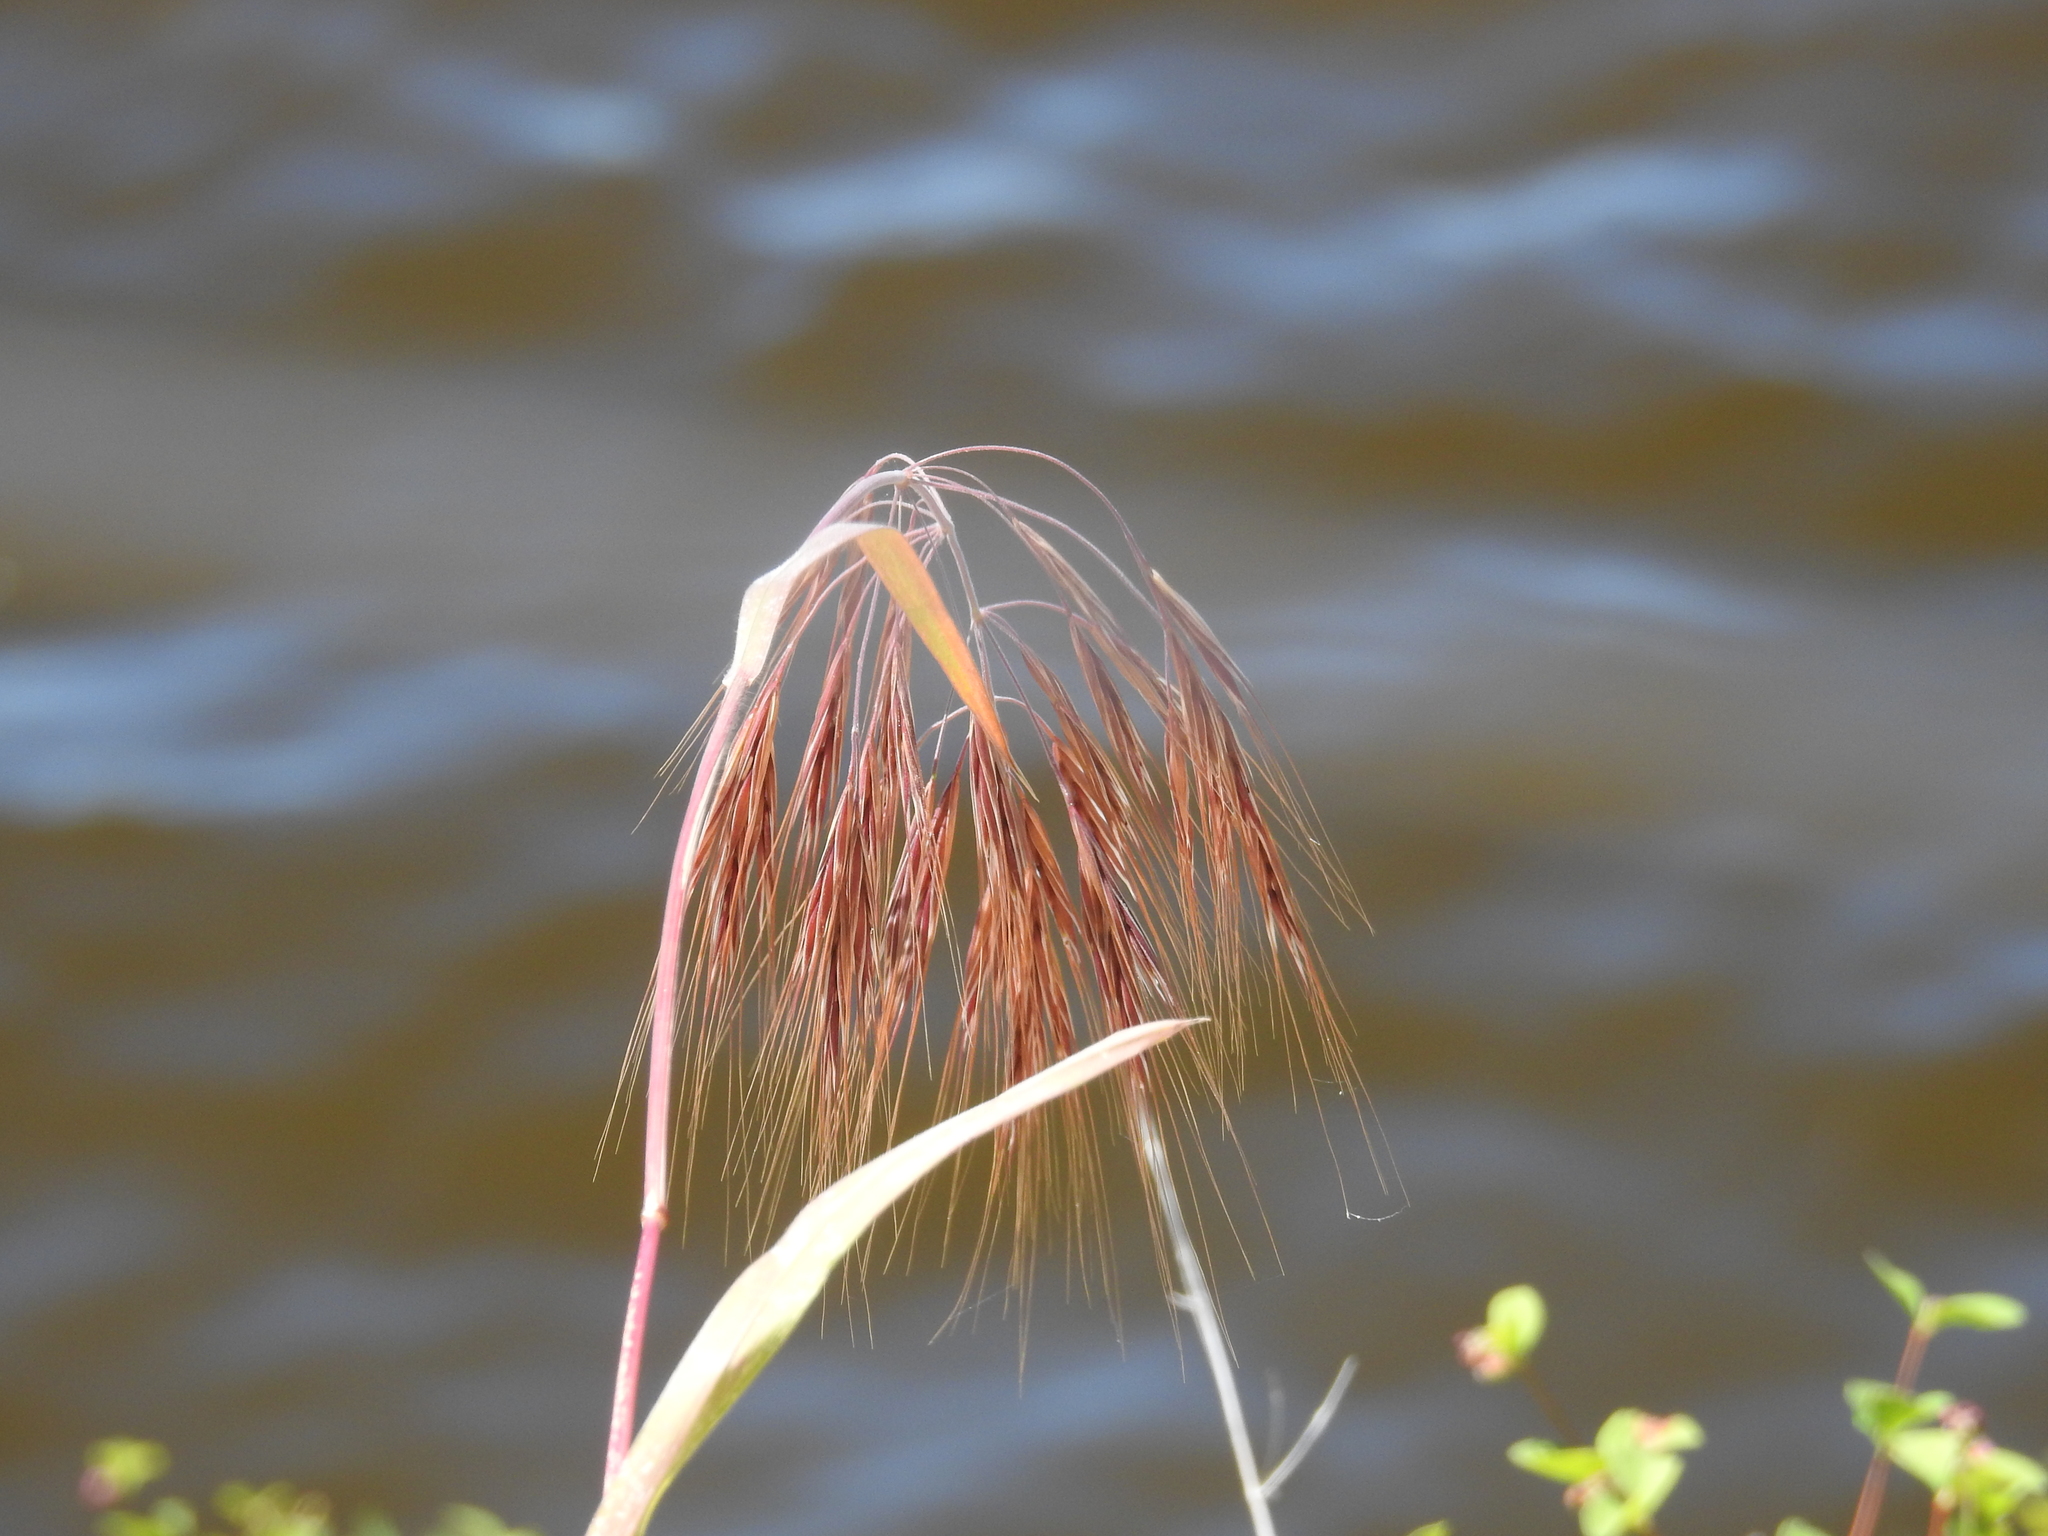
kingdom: Plantae
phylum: Tracheophyta
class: Liliopsida
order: Poales
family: Poaceae
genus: Bromus
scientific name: Bromus rigidus
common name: Ripgut brome
